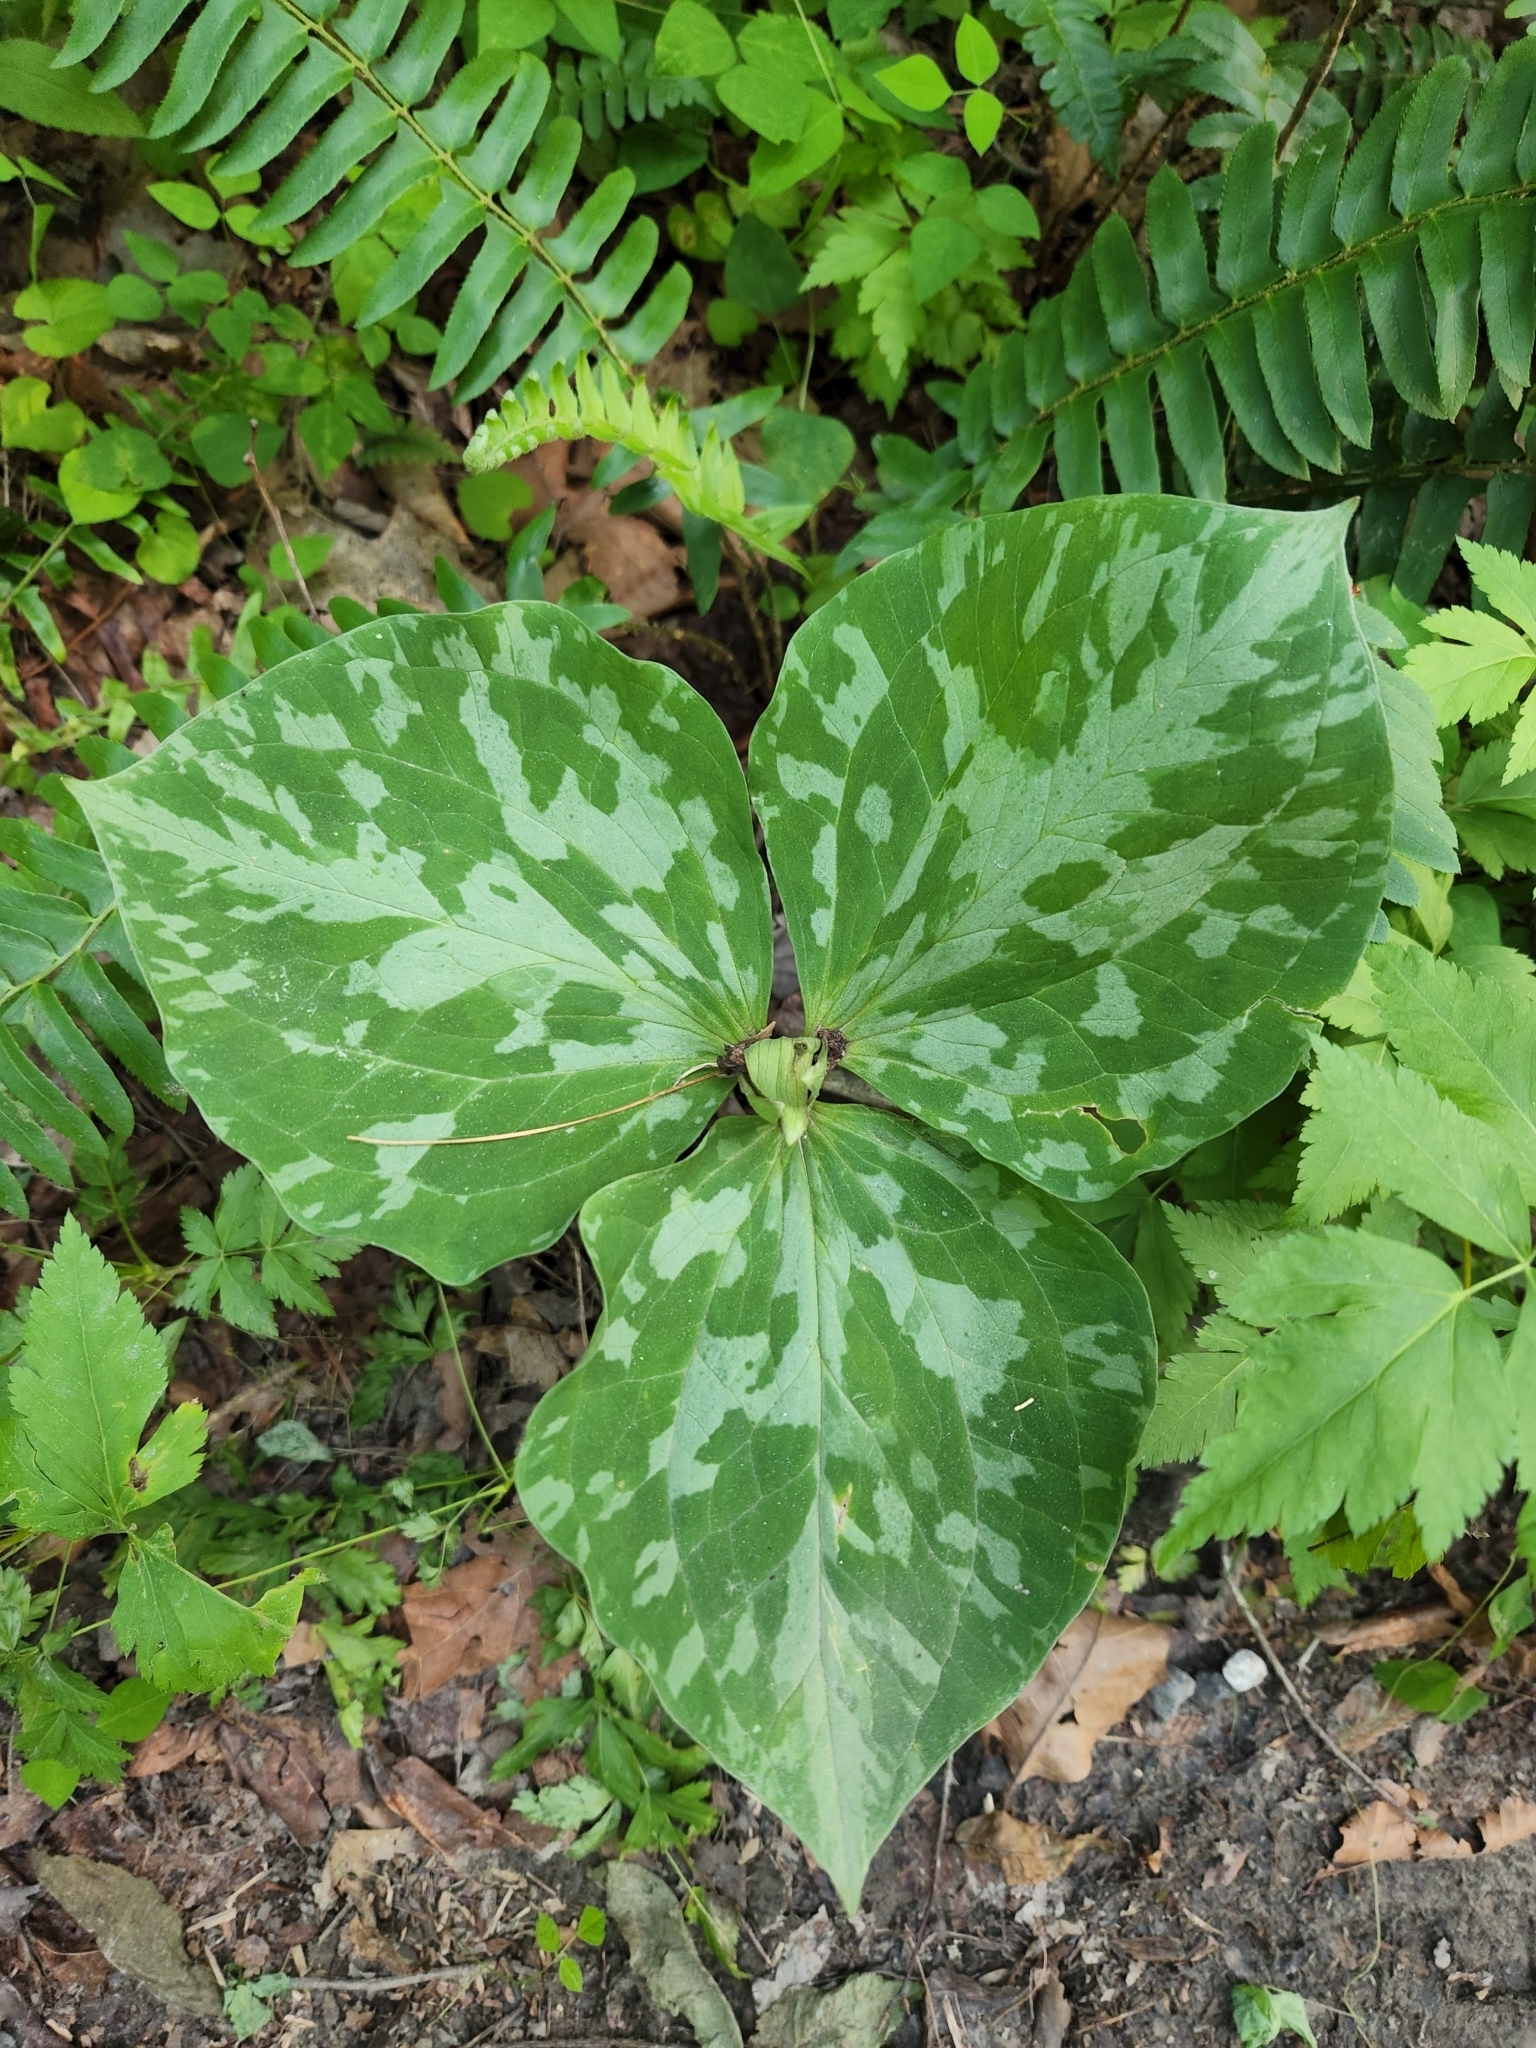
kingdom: Plantae
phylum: Tracheophyta
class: Liliopsida
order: Liliales
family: Melanthiaceae
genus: Trillium
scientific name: Trillium cuneatum
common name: Cuneate trillium
